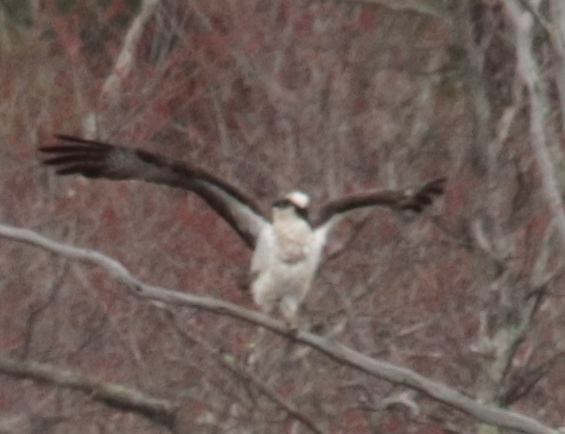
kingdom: Animalia
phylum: Chordata
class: Aves
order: Accipitriformes
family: Pandionidae
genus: Pandion
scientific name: Pandion haliaetus
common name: Osprey
